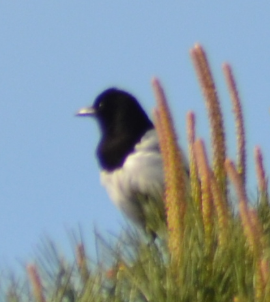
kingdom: Animalia
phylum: Chordata
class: Aves
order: Passeriformes
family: Corvidae
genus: Pica
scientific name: Pica pica
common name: Eurasian magpie
